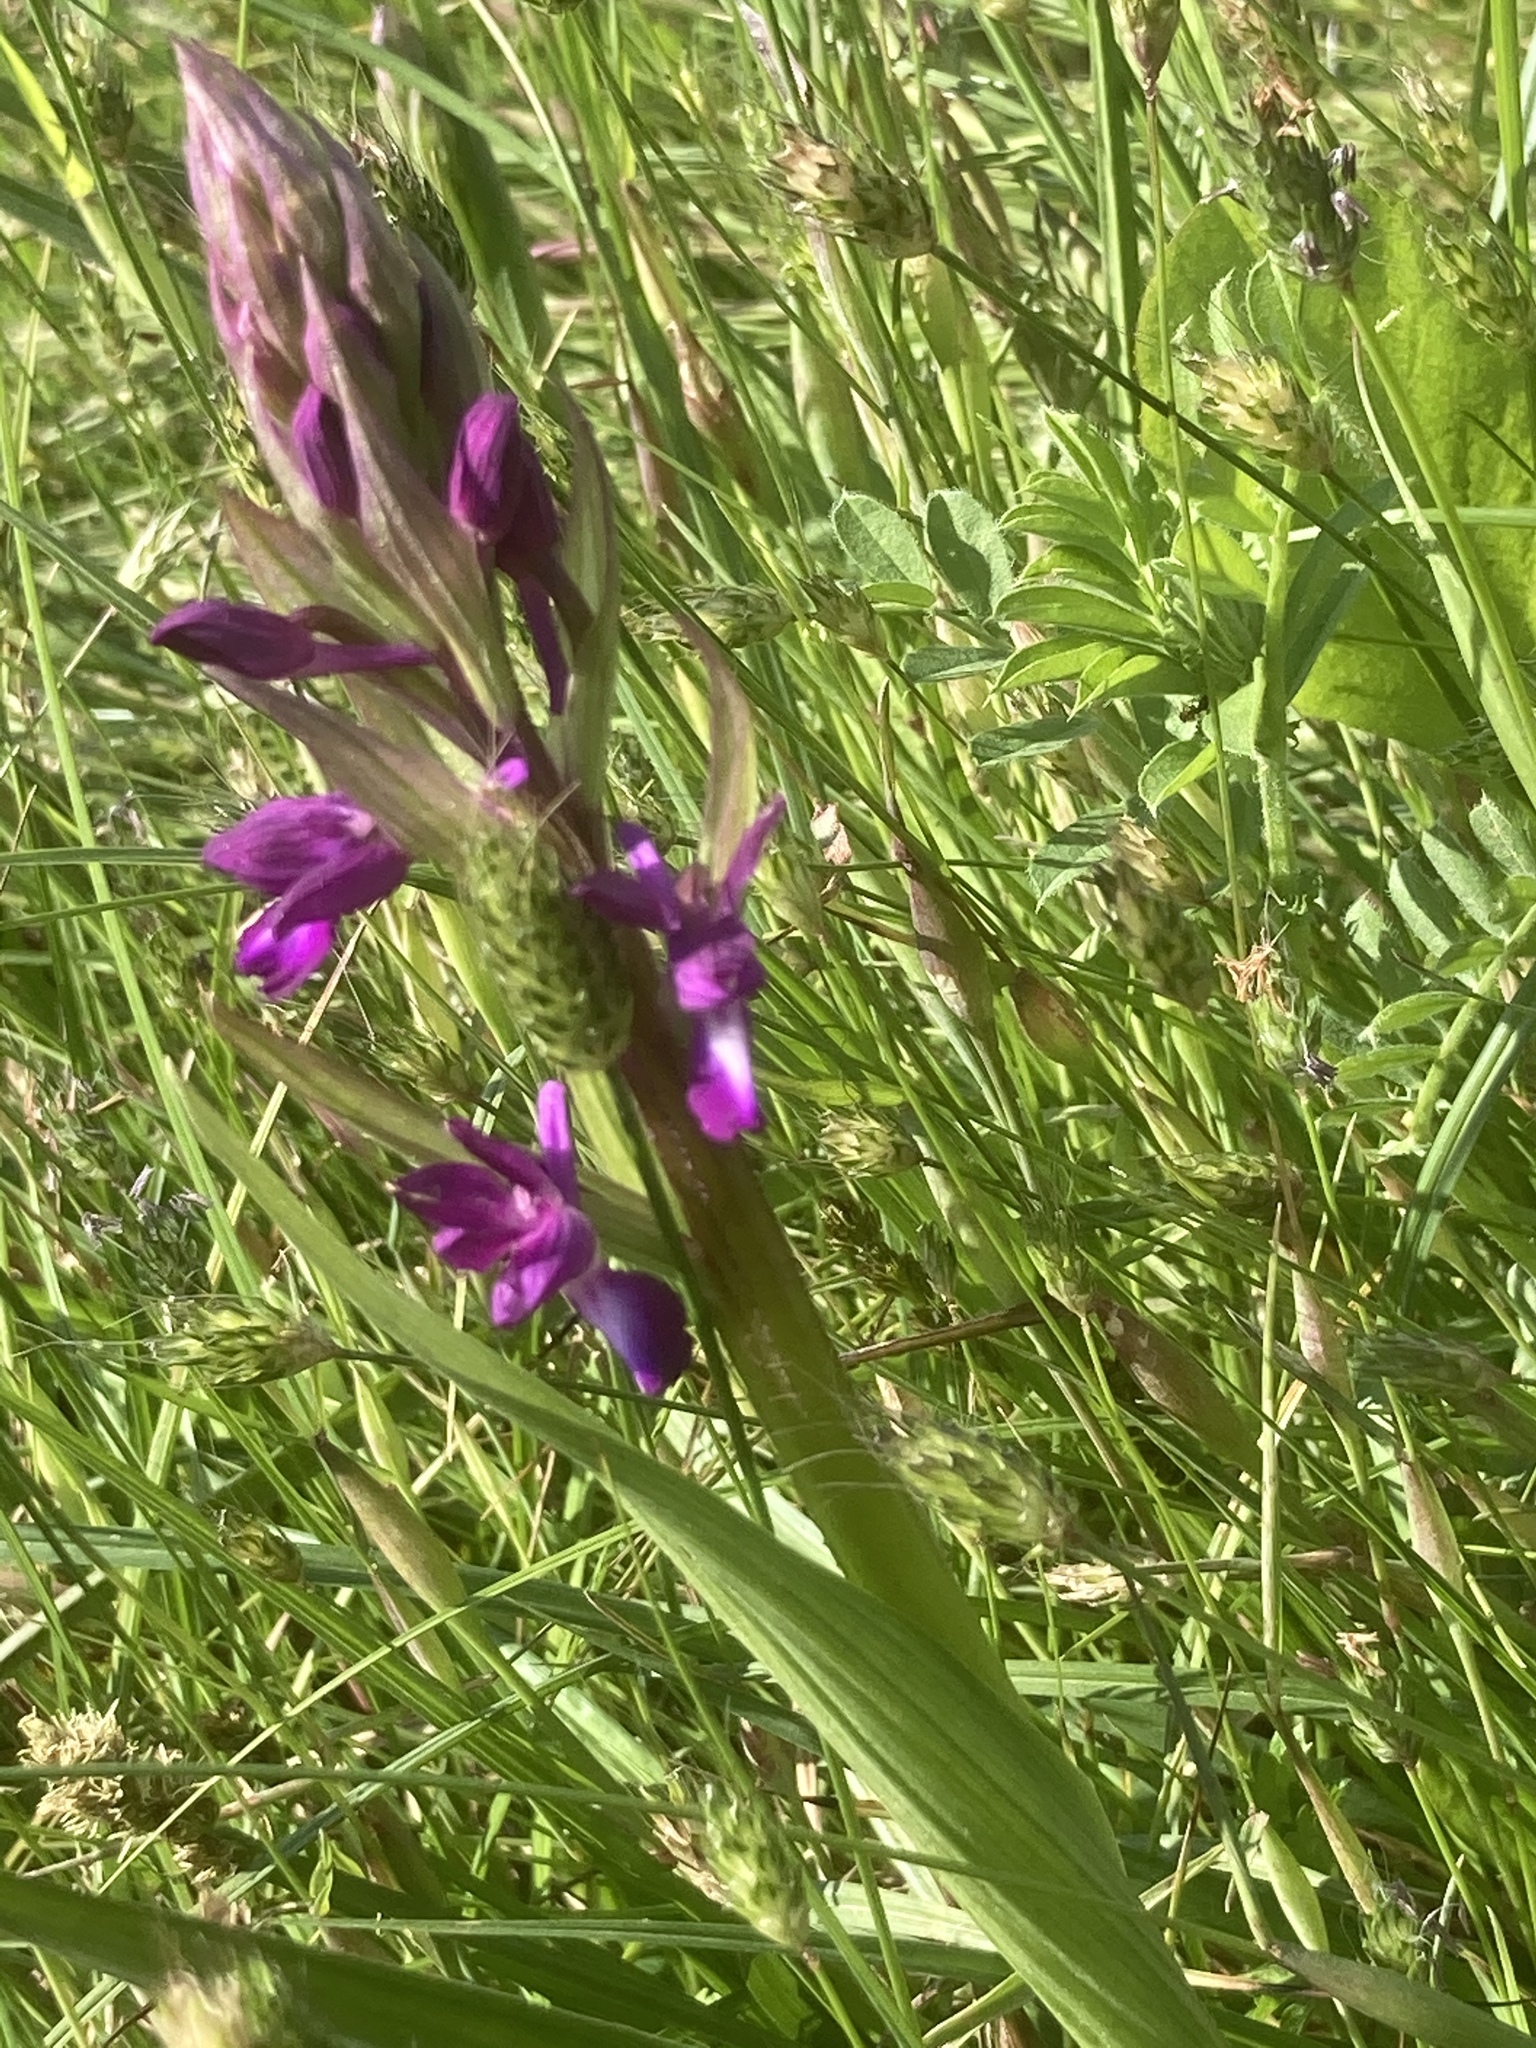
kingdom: Plantae
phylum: Tracheophyta
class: Liliopsida
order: Asparagales
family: Orchidaceae
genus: Anacamptis
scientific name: Anacamptis laxiflora
